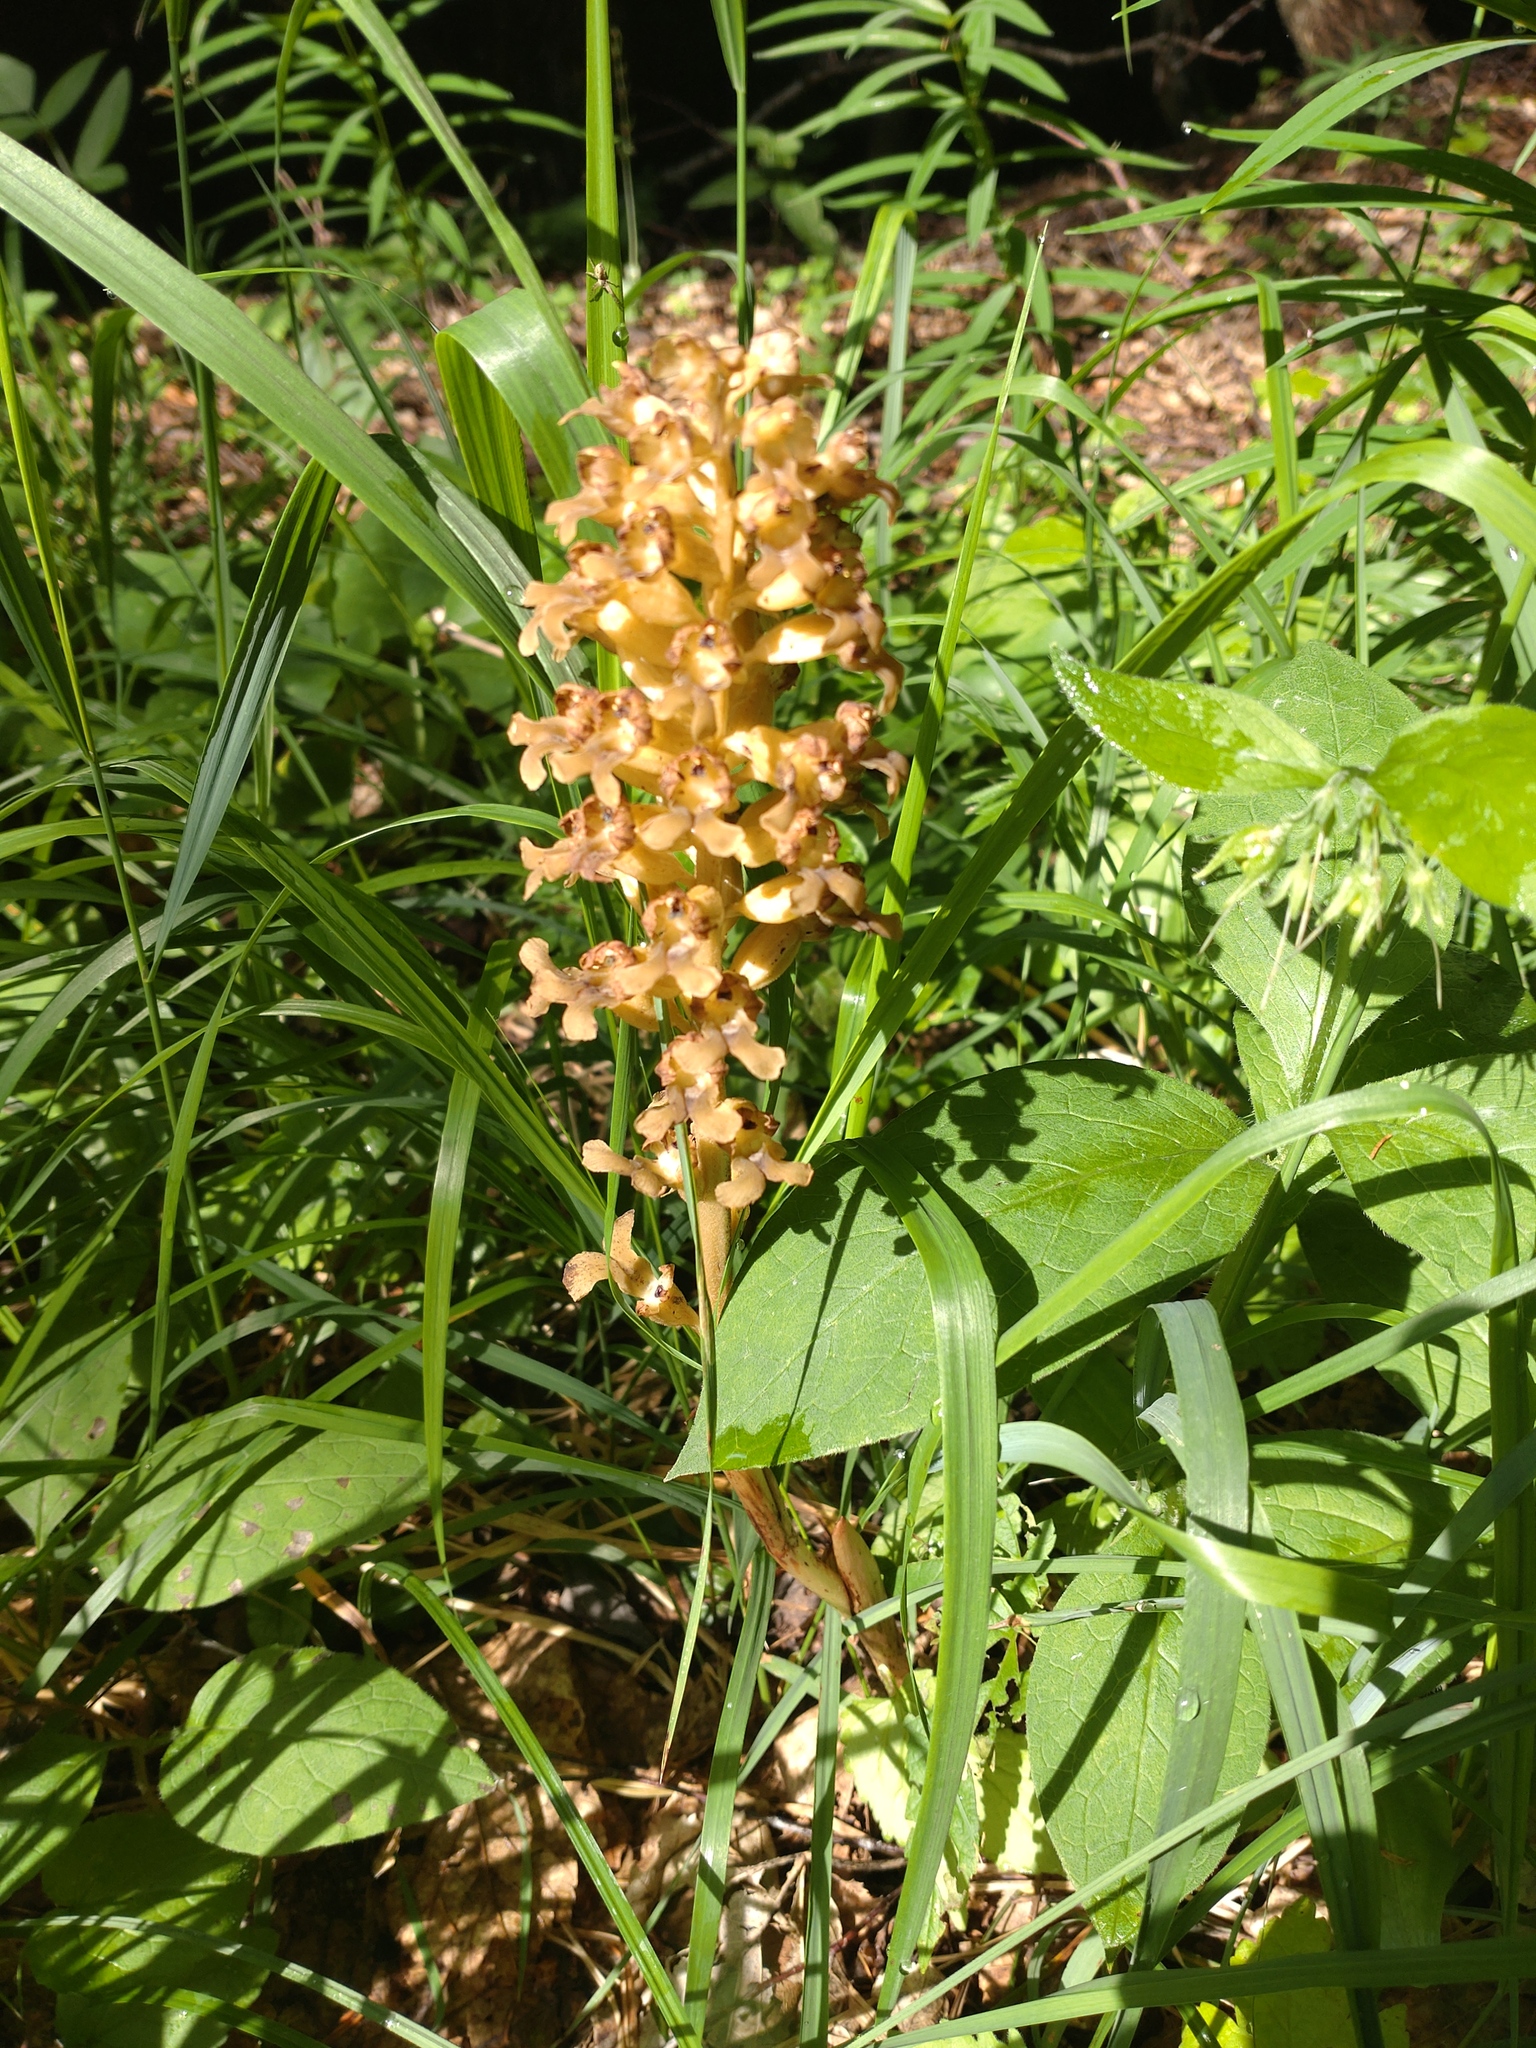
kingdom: Plantae
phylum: Tracheophyta
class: Liliopsida
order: Asparagales
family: Orchidaceae
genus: Neottia
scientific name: Neottia nidus-avis
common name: Bird's-nest orchid
